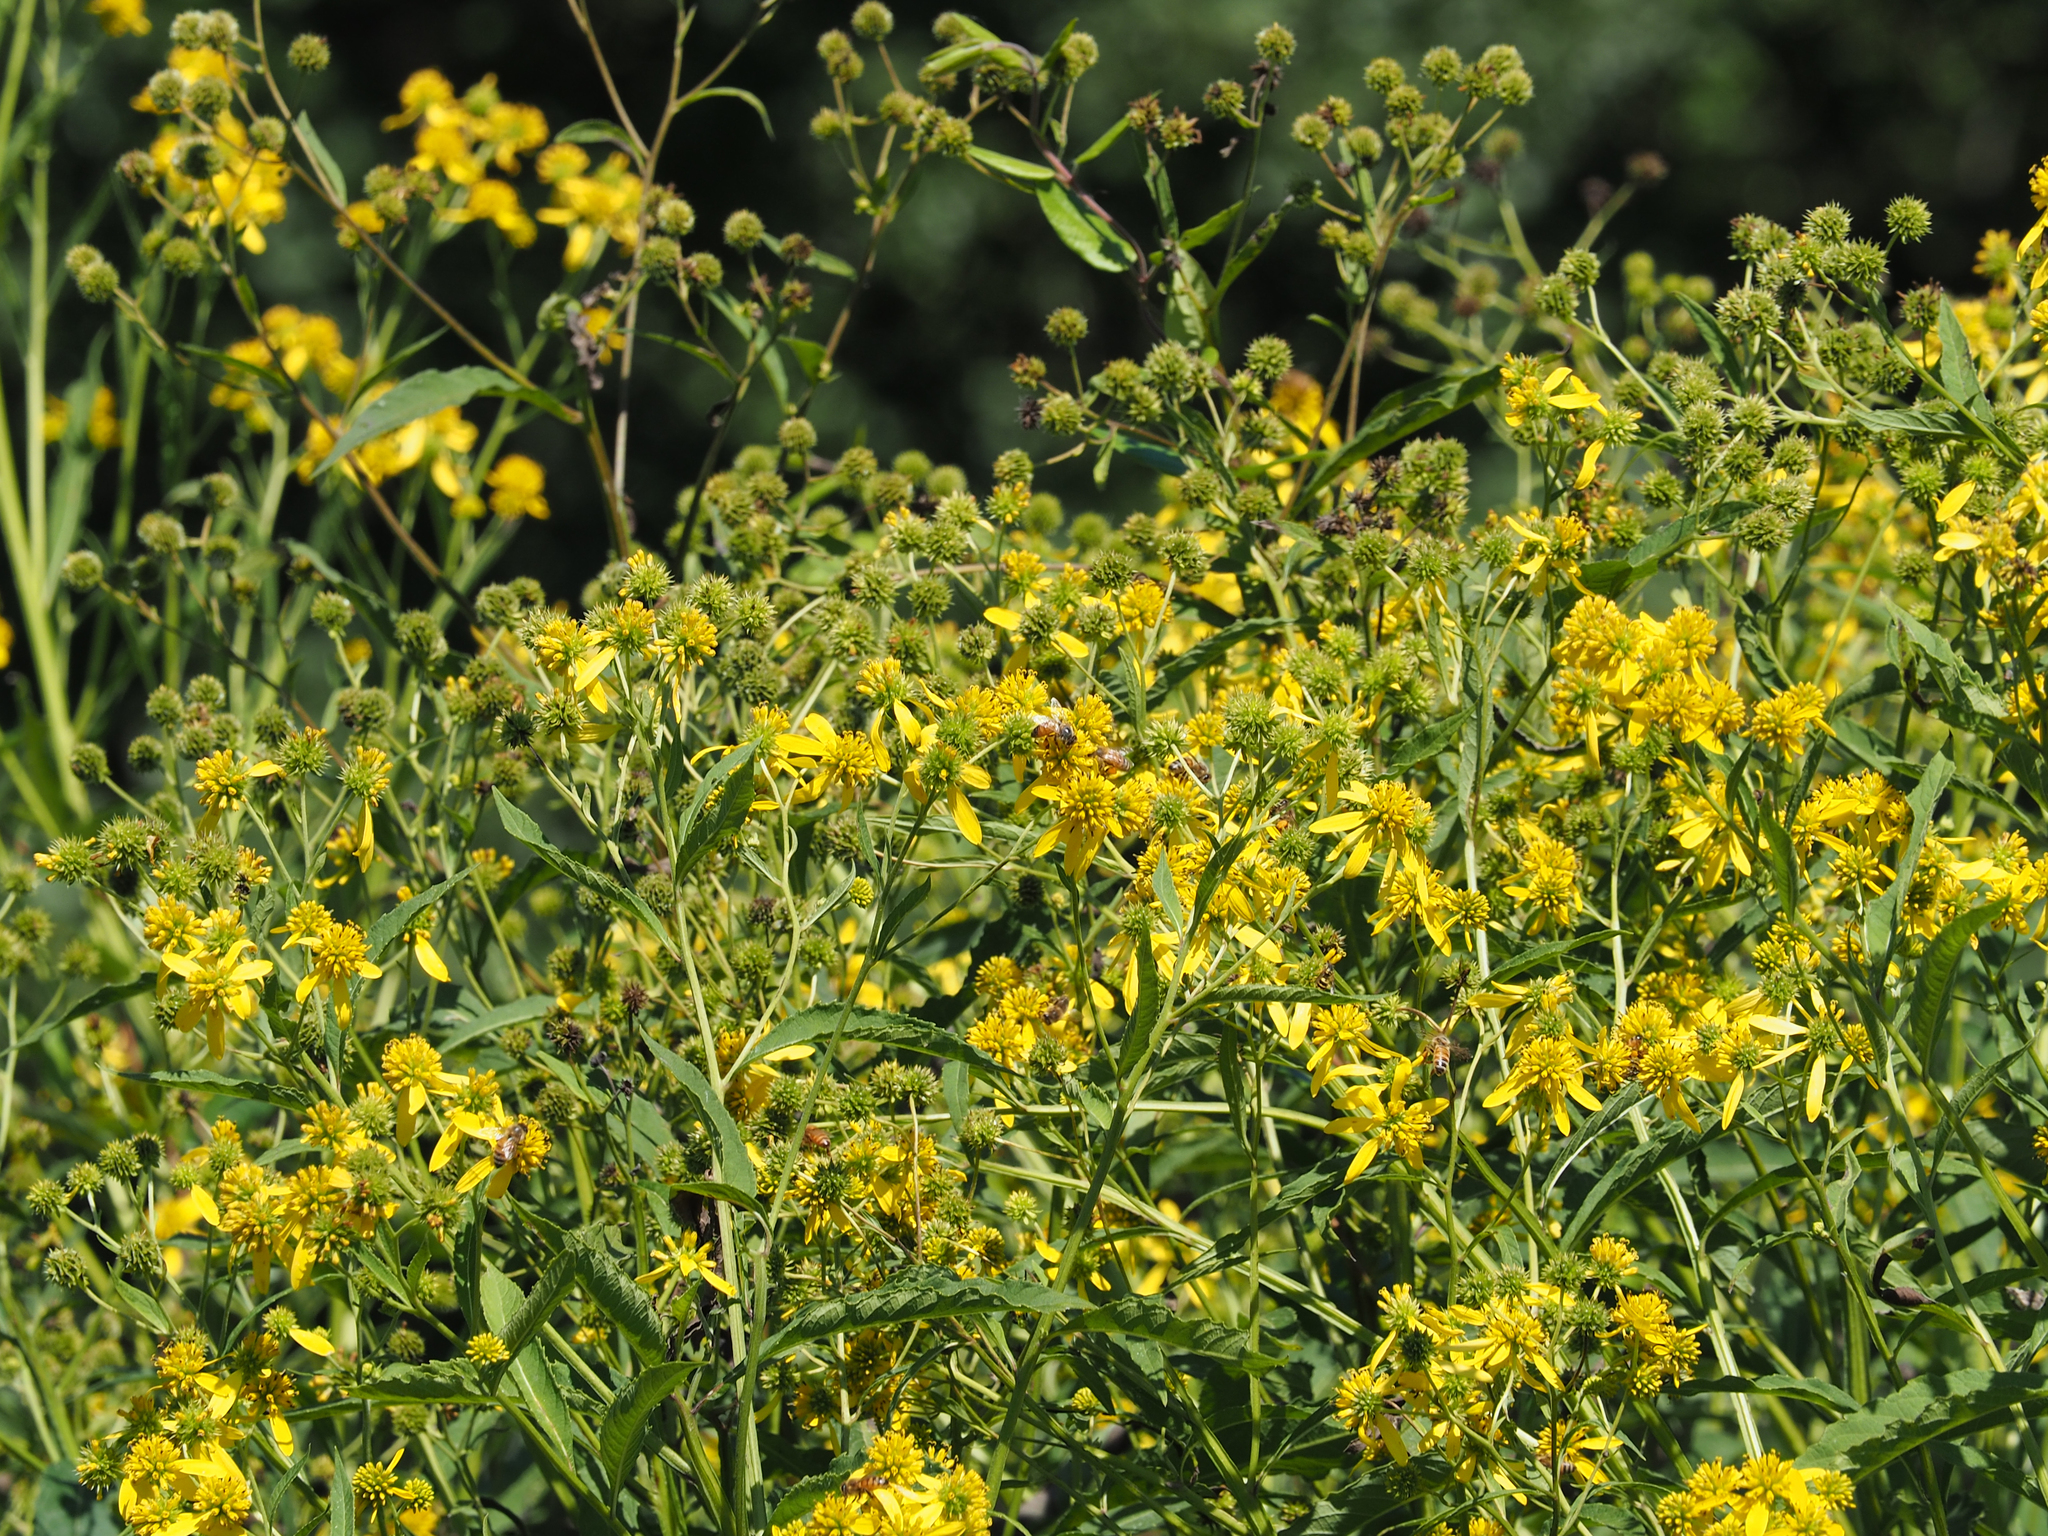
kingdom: Plantae
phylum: Tracheophyta
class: Magnoliopsida
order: Asterales
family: Asteraceae
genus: Verbesina
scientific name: Verbesina alternifolia
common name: Wingstem
